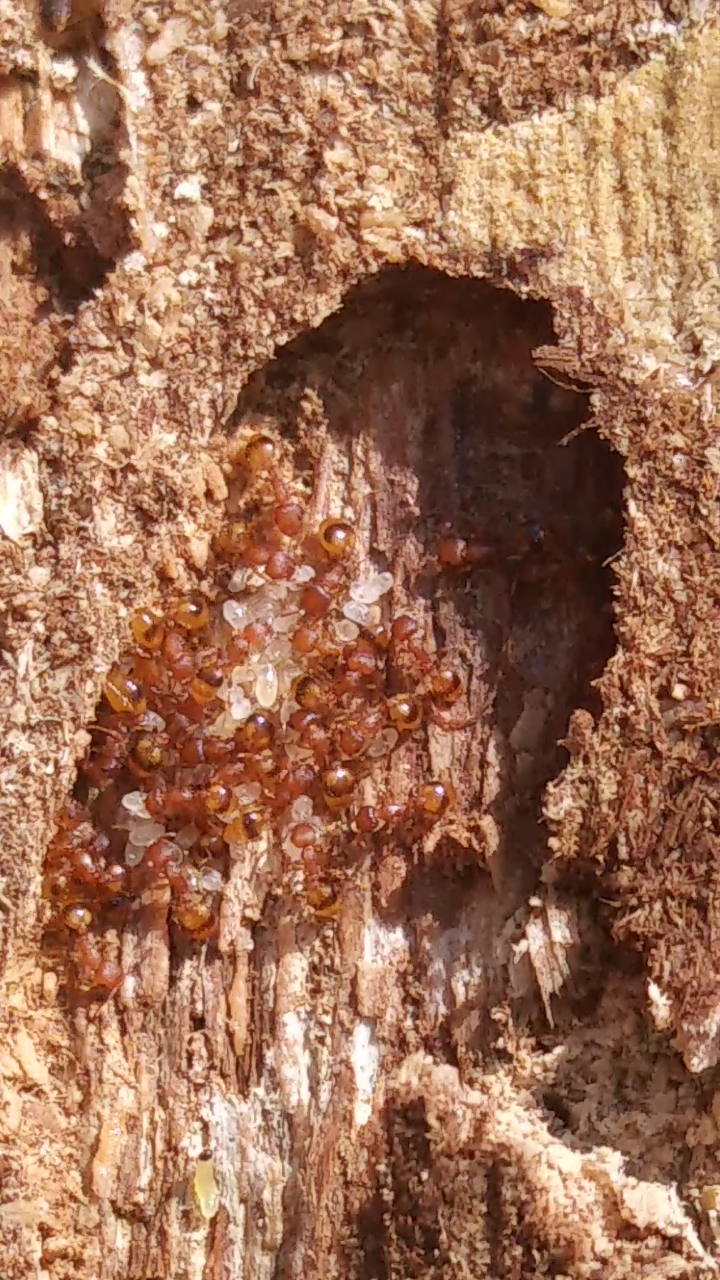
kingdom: Animalia
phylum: Arthropoda
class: Insecta
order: Hymenoptera
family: Formicidae
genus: Temnothorax
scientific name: Temnothorax curvispinosus
